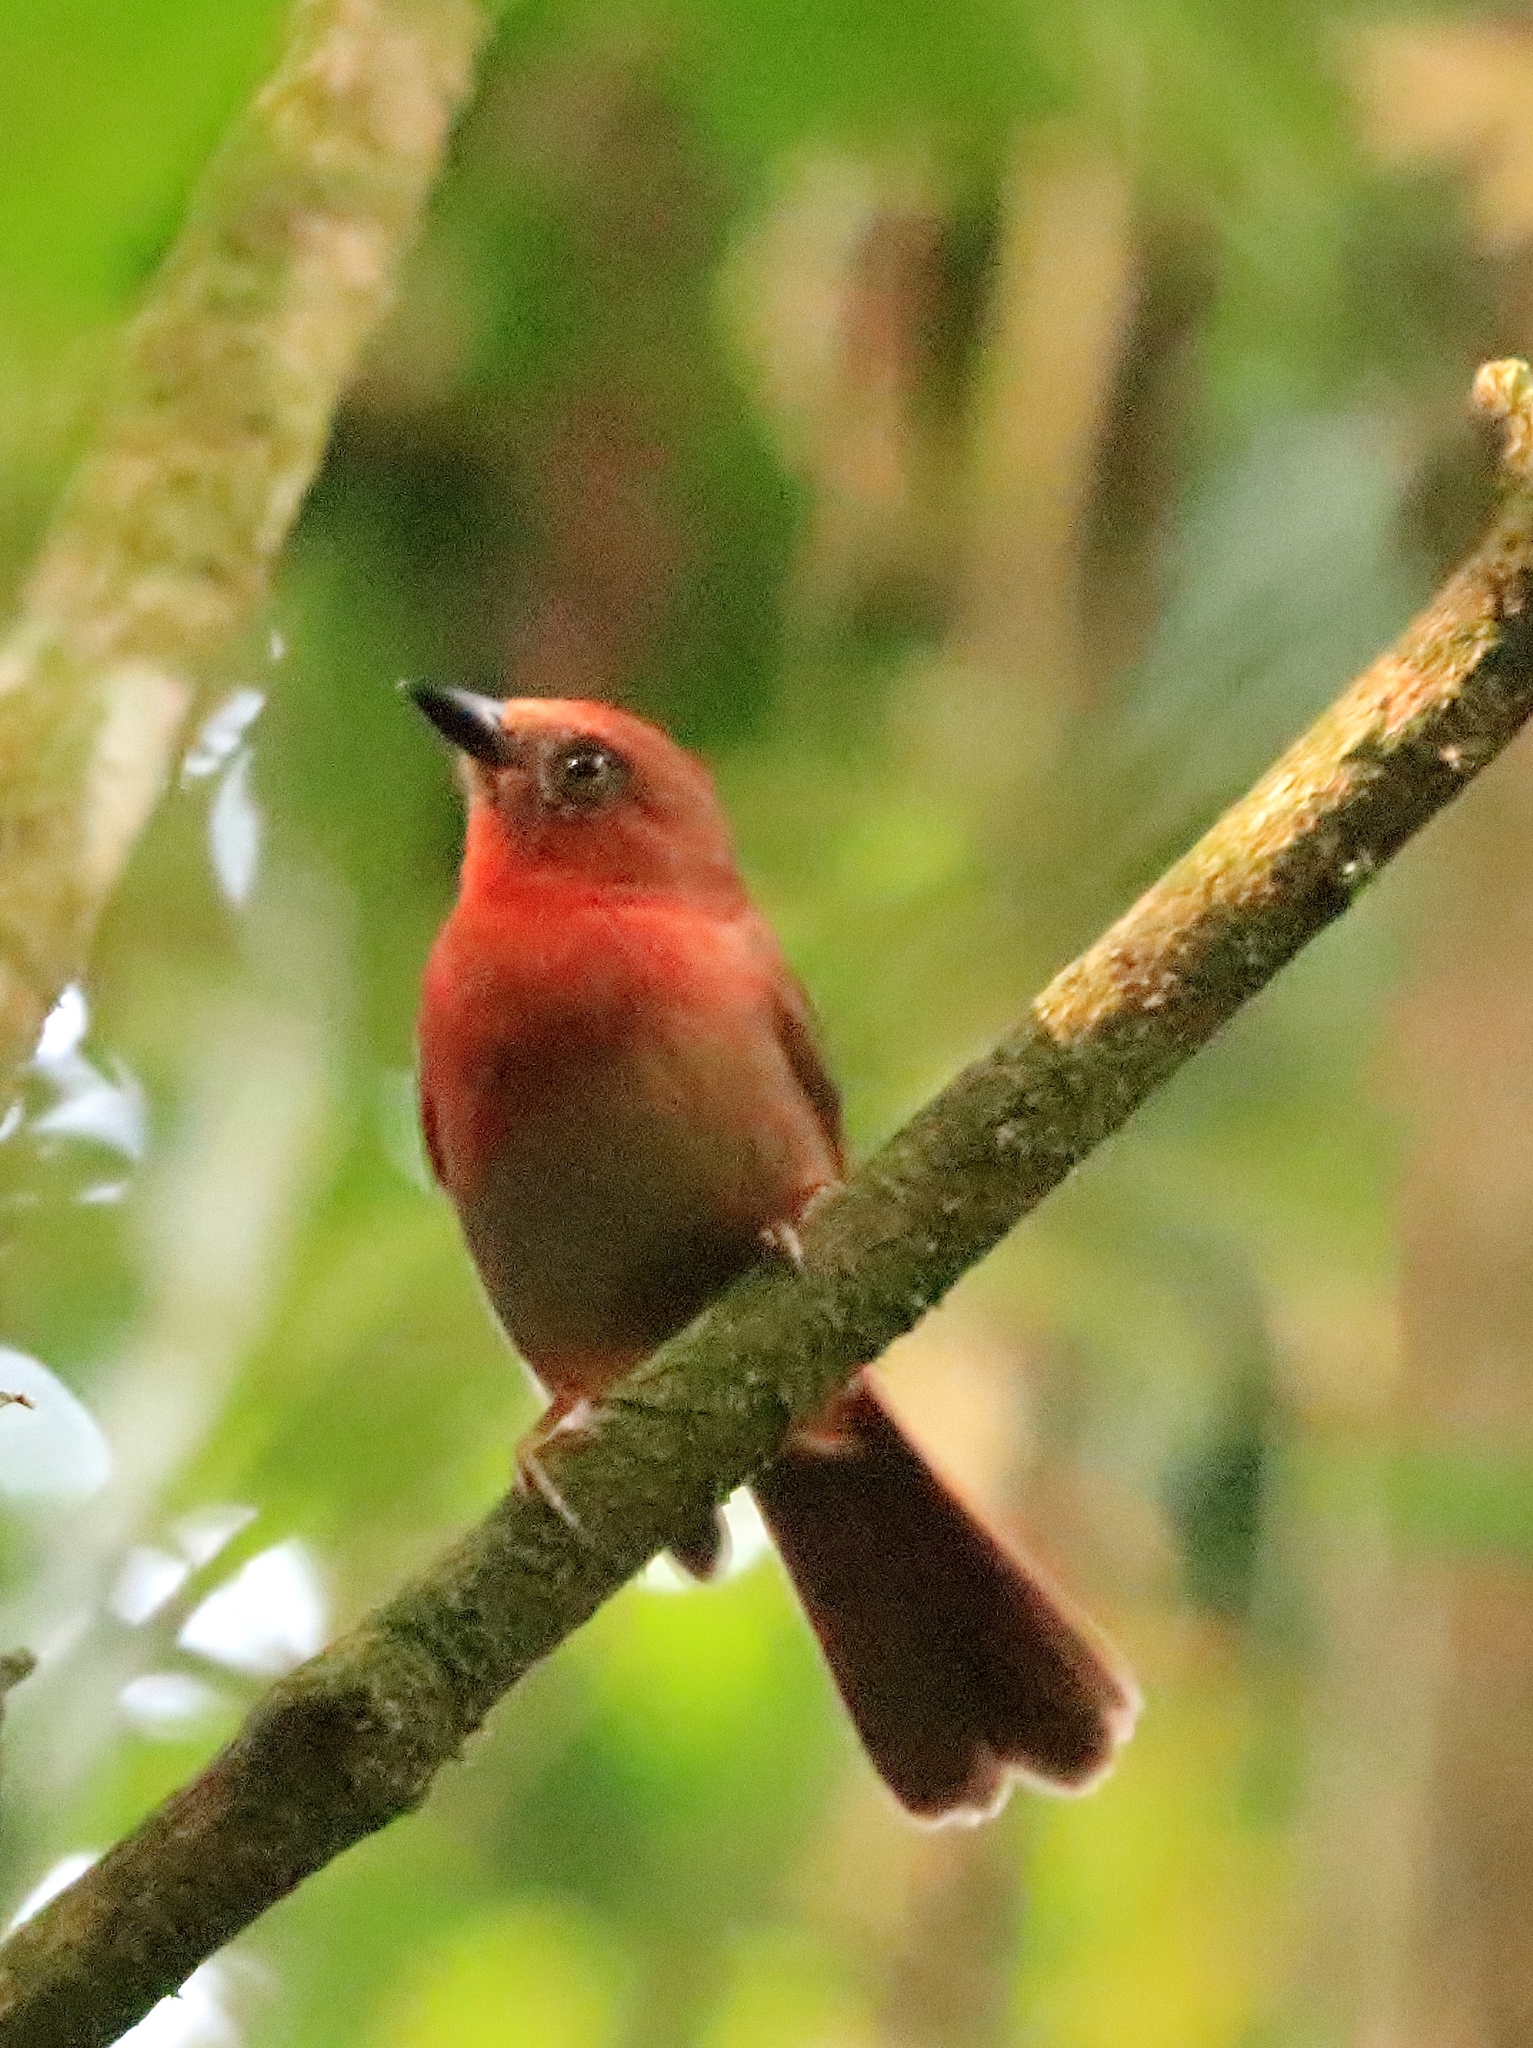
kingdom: Animalia
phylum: Chordata
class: Aves
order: Passeriformes
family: Cardinalidae
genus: Habia
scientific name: Habia fuscicauda
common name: Red-throated ant-tanager
